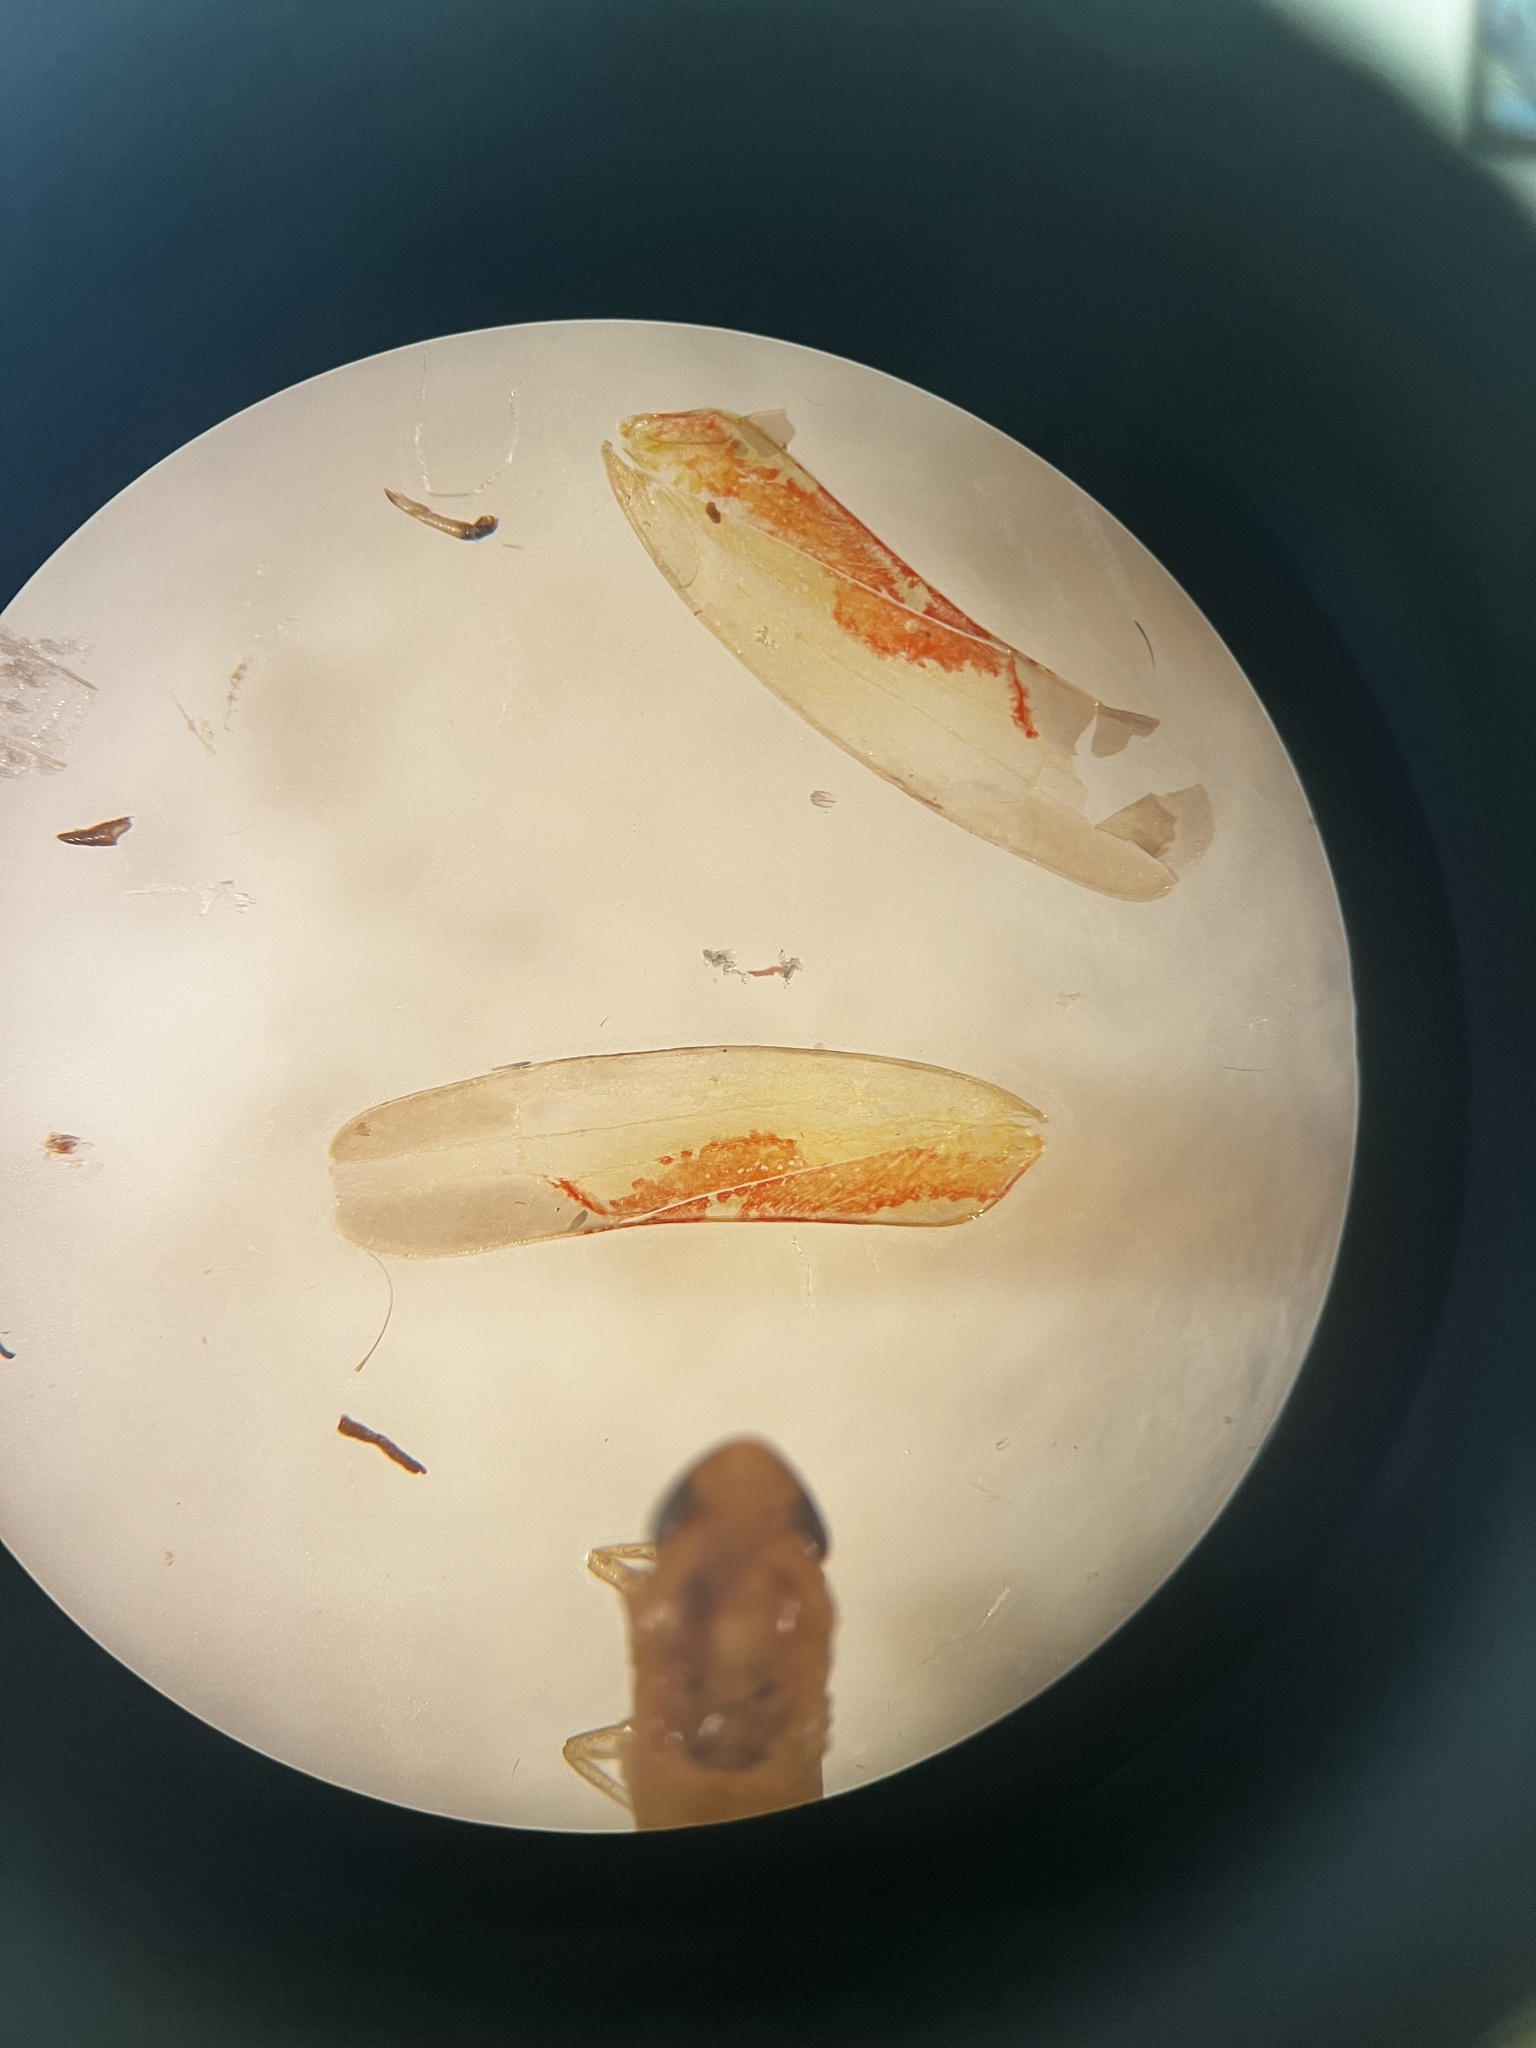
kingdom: Animalia
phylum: Arthropoda
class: Insecta
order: Hemiptera
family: Cicadellidae
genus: Zygina
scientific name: Zygina griseombra
